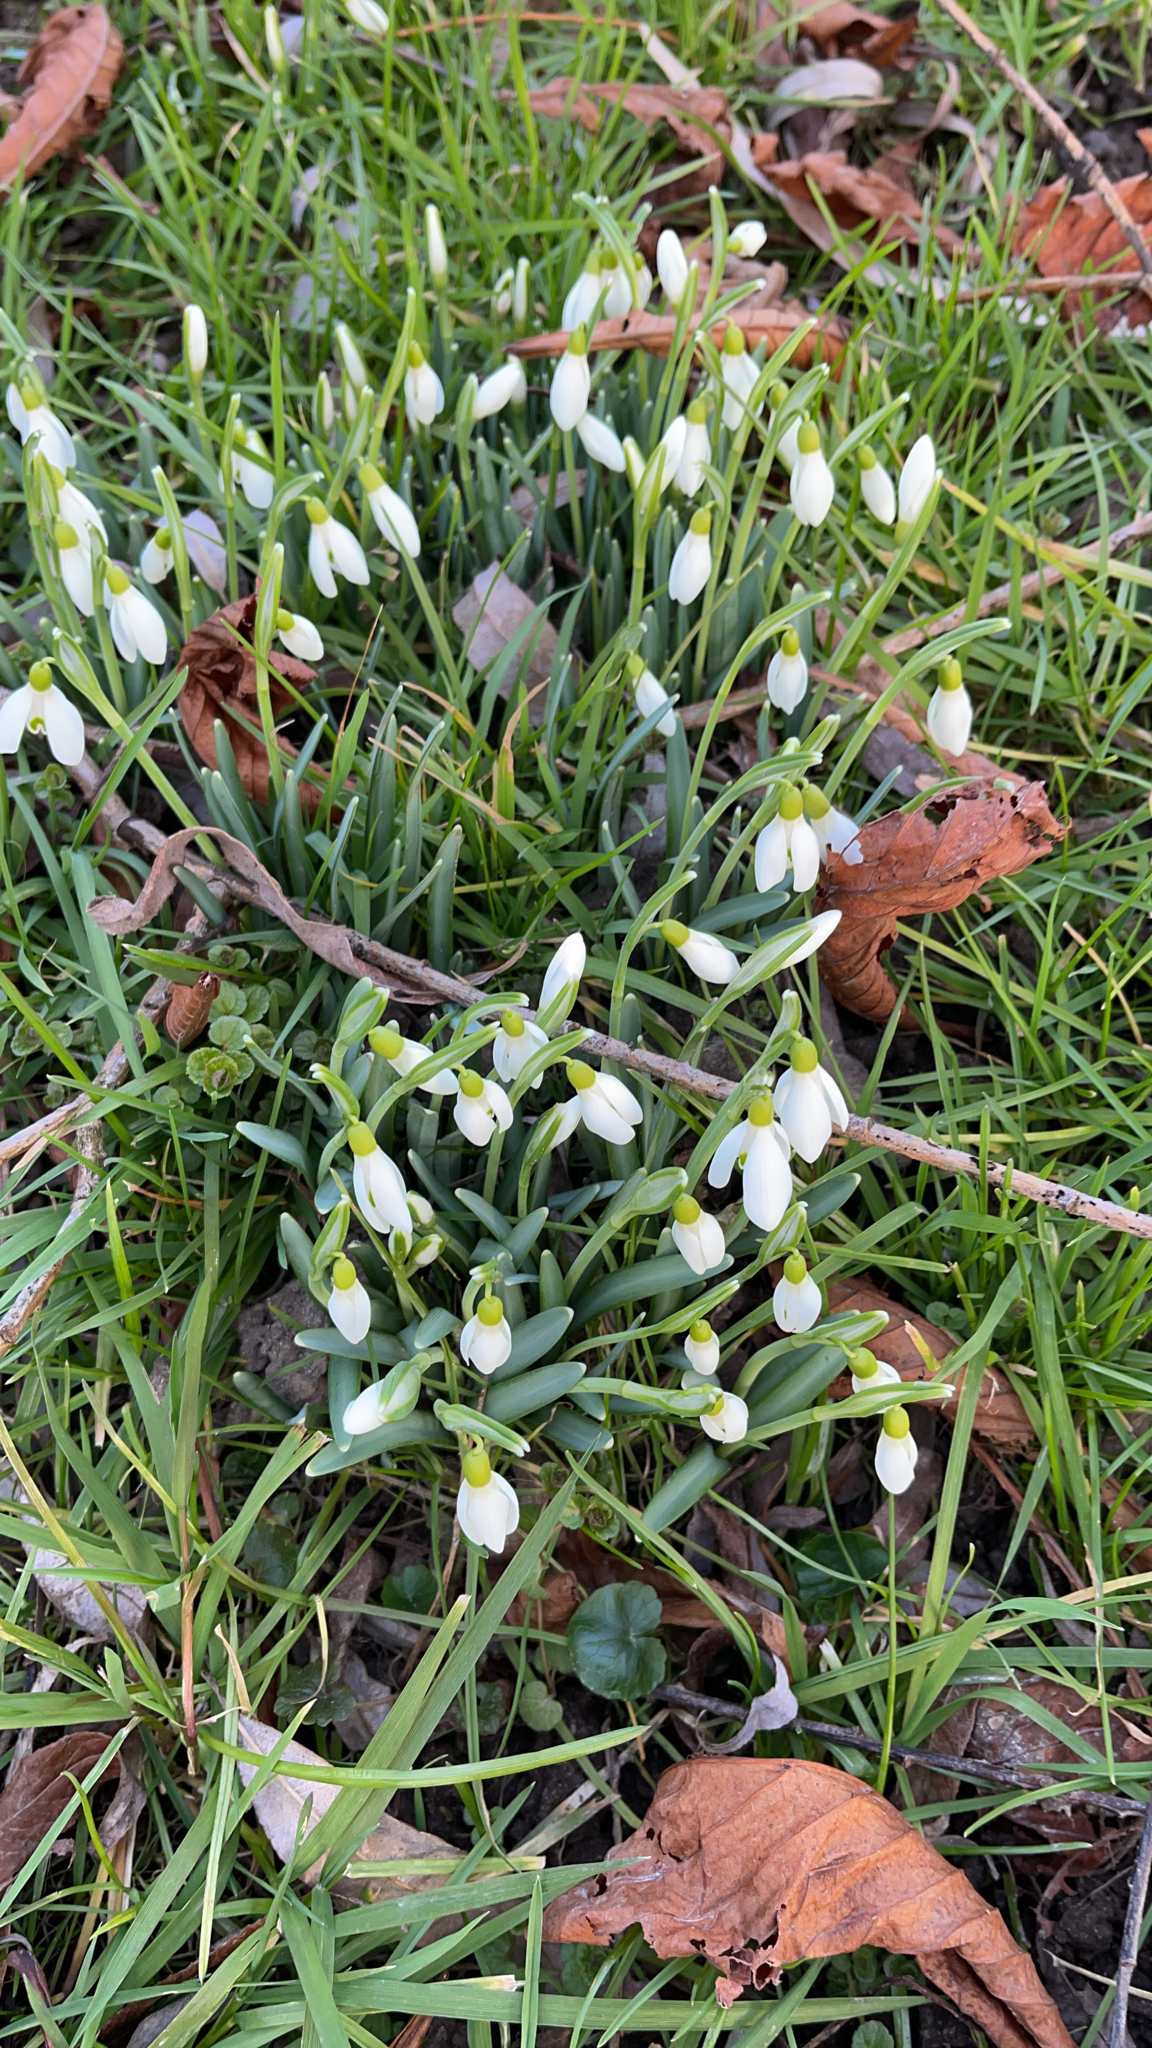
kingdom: Plantae
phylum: Tracheophyta
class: Liliopsida
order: Asparagales
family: Amaryllidaceae
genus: Galanthus
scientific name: Galanthus nivalis
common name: Snowdrop
